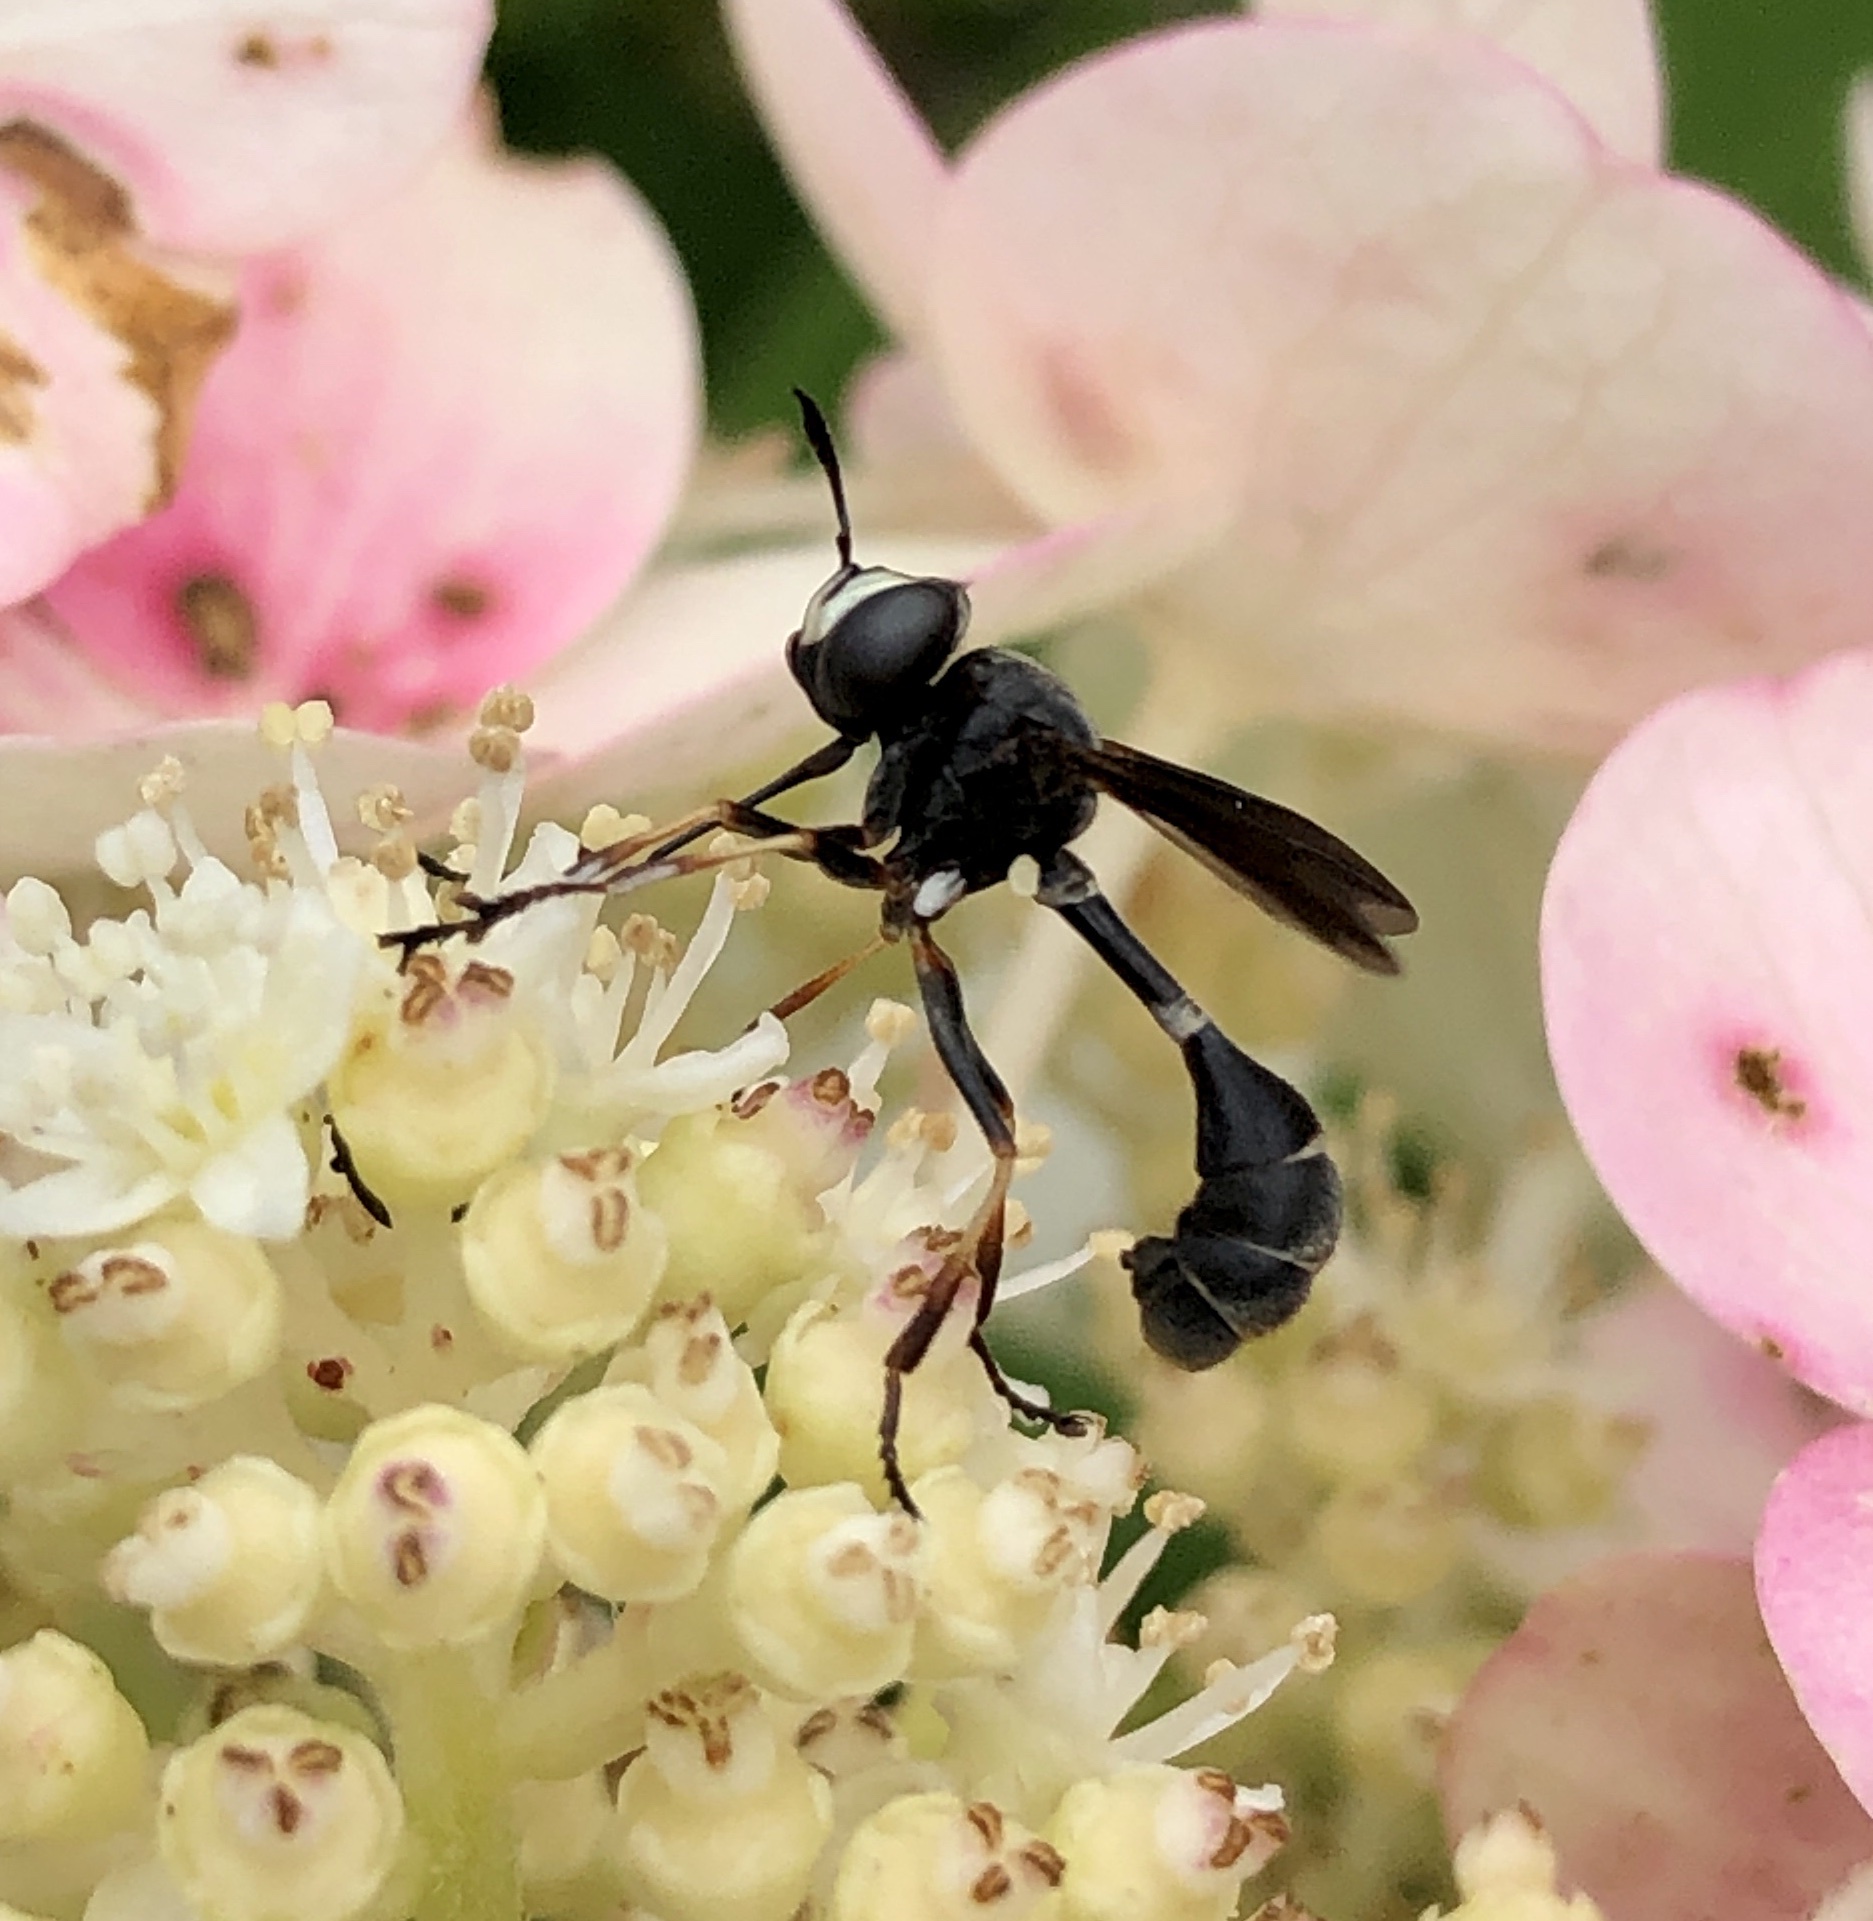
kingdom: Animalia
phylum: Arthropoda
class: Insecta
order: Diptera
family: Conopidae
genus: Physocephala
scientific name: Physocephala tibialis
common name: Common eastern physocephala
